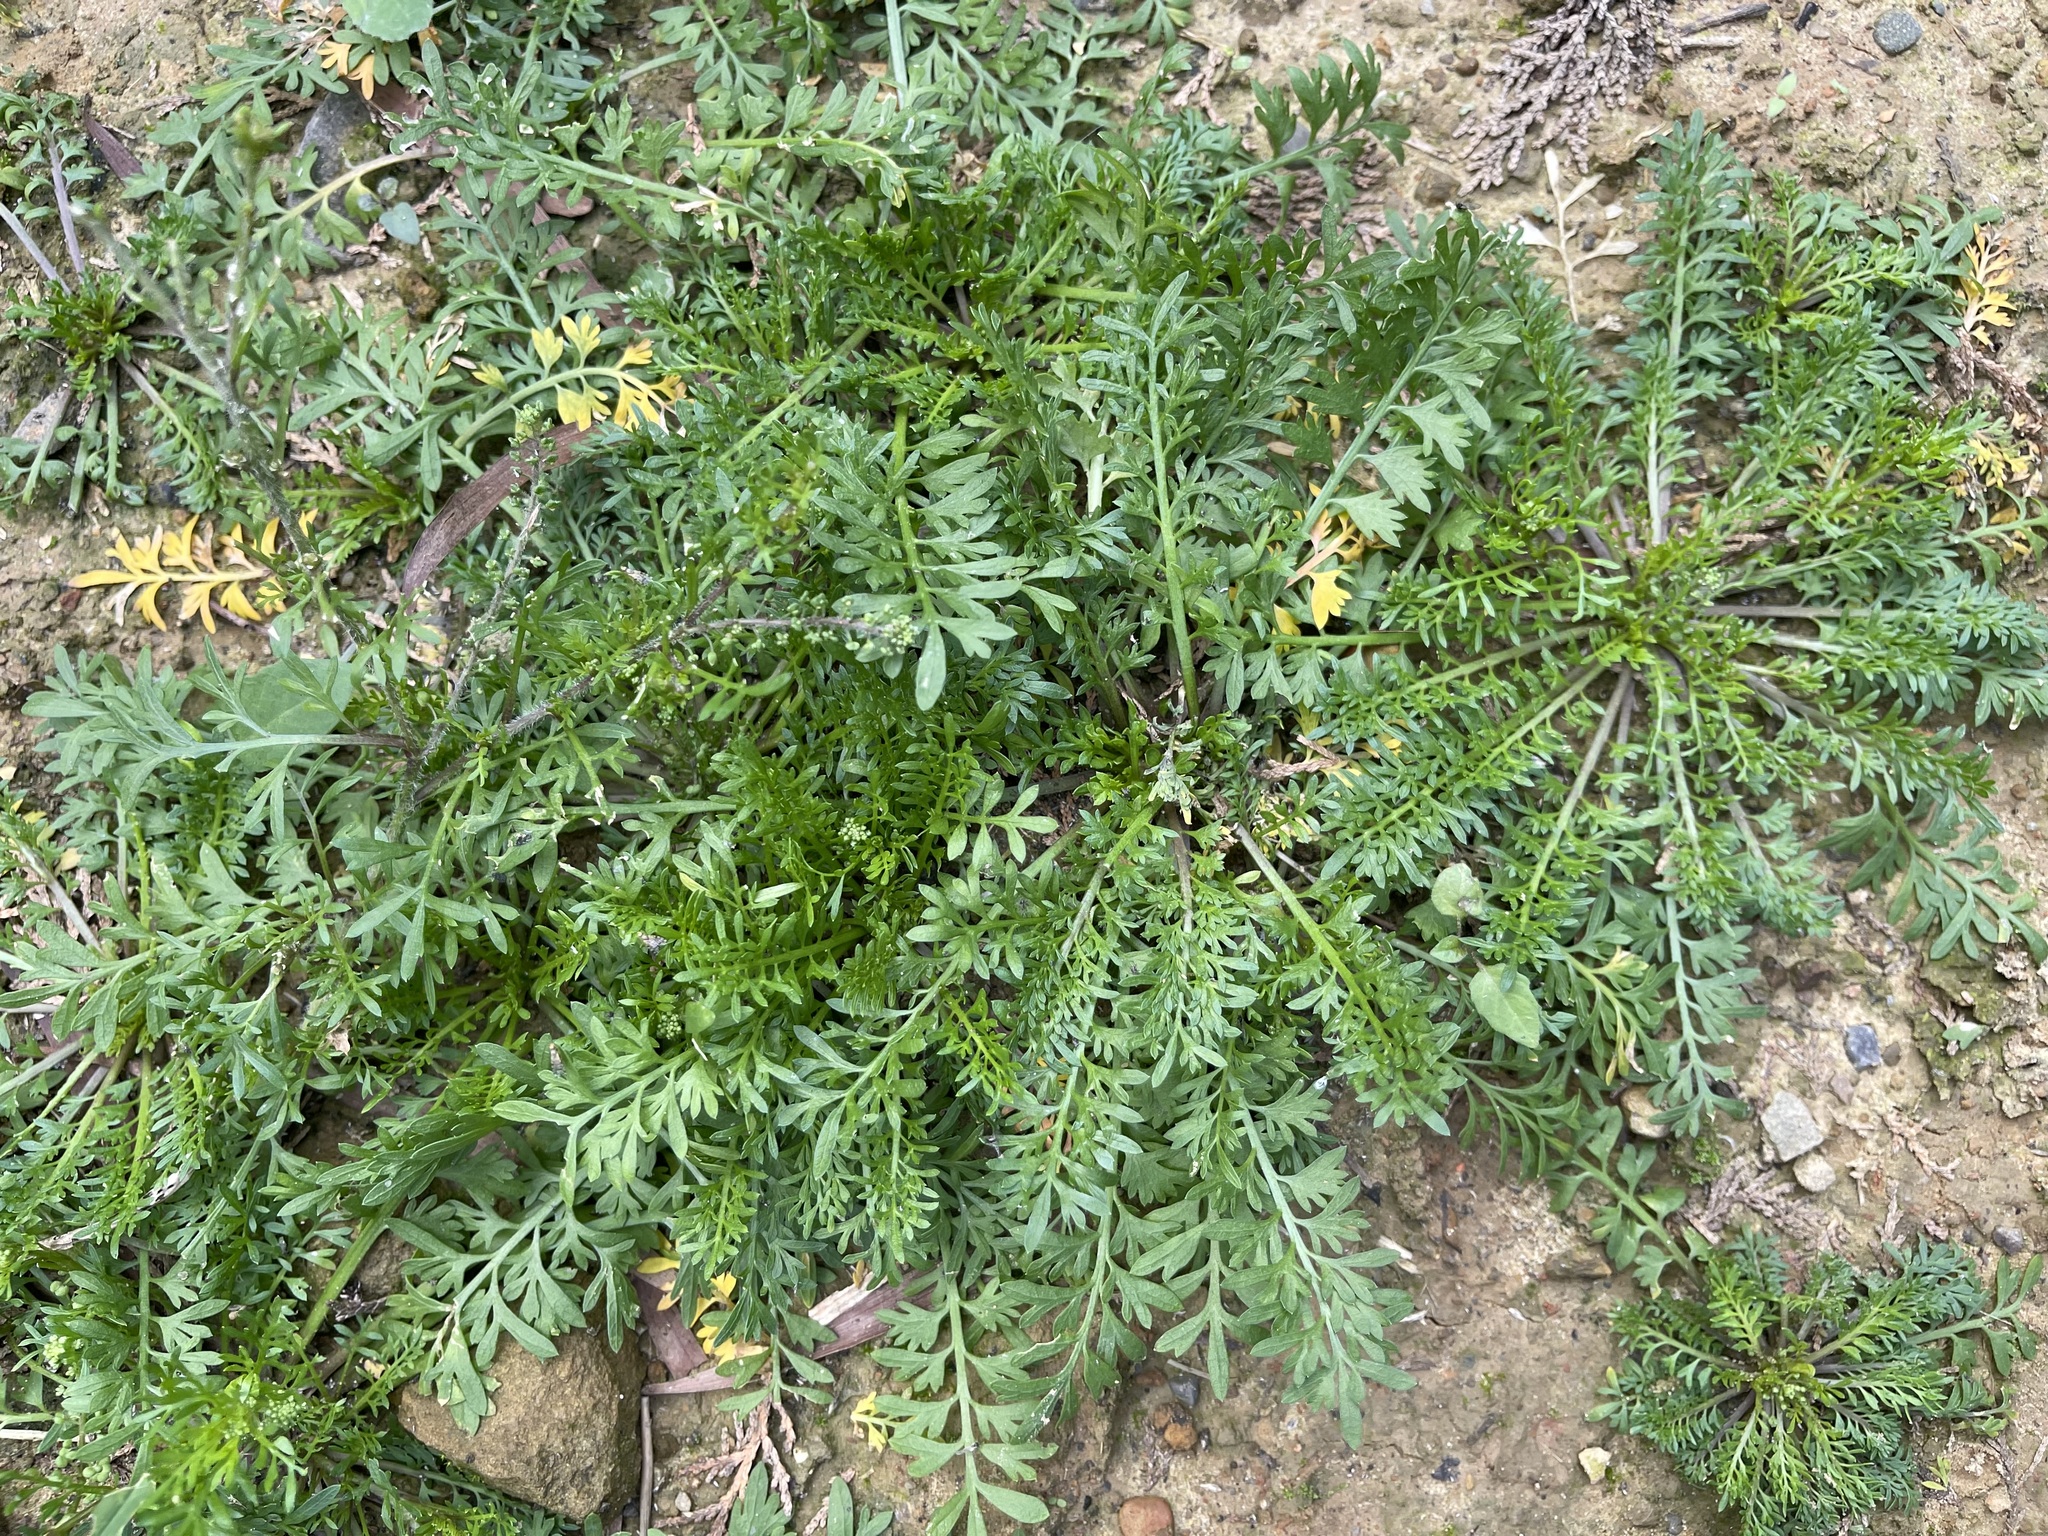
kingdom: Plantae
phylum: Tracheophyta
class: Magnoliopsida
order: Brassicales
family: Brassicaceae
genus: Lepidium
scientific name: Lepidium didymum
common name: Lesser swinecress
